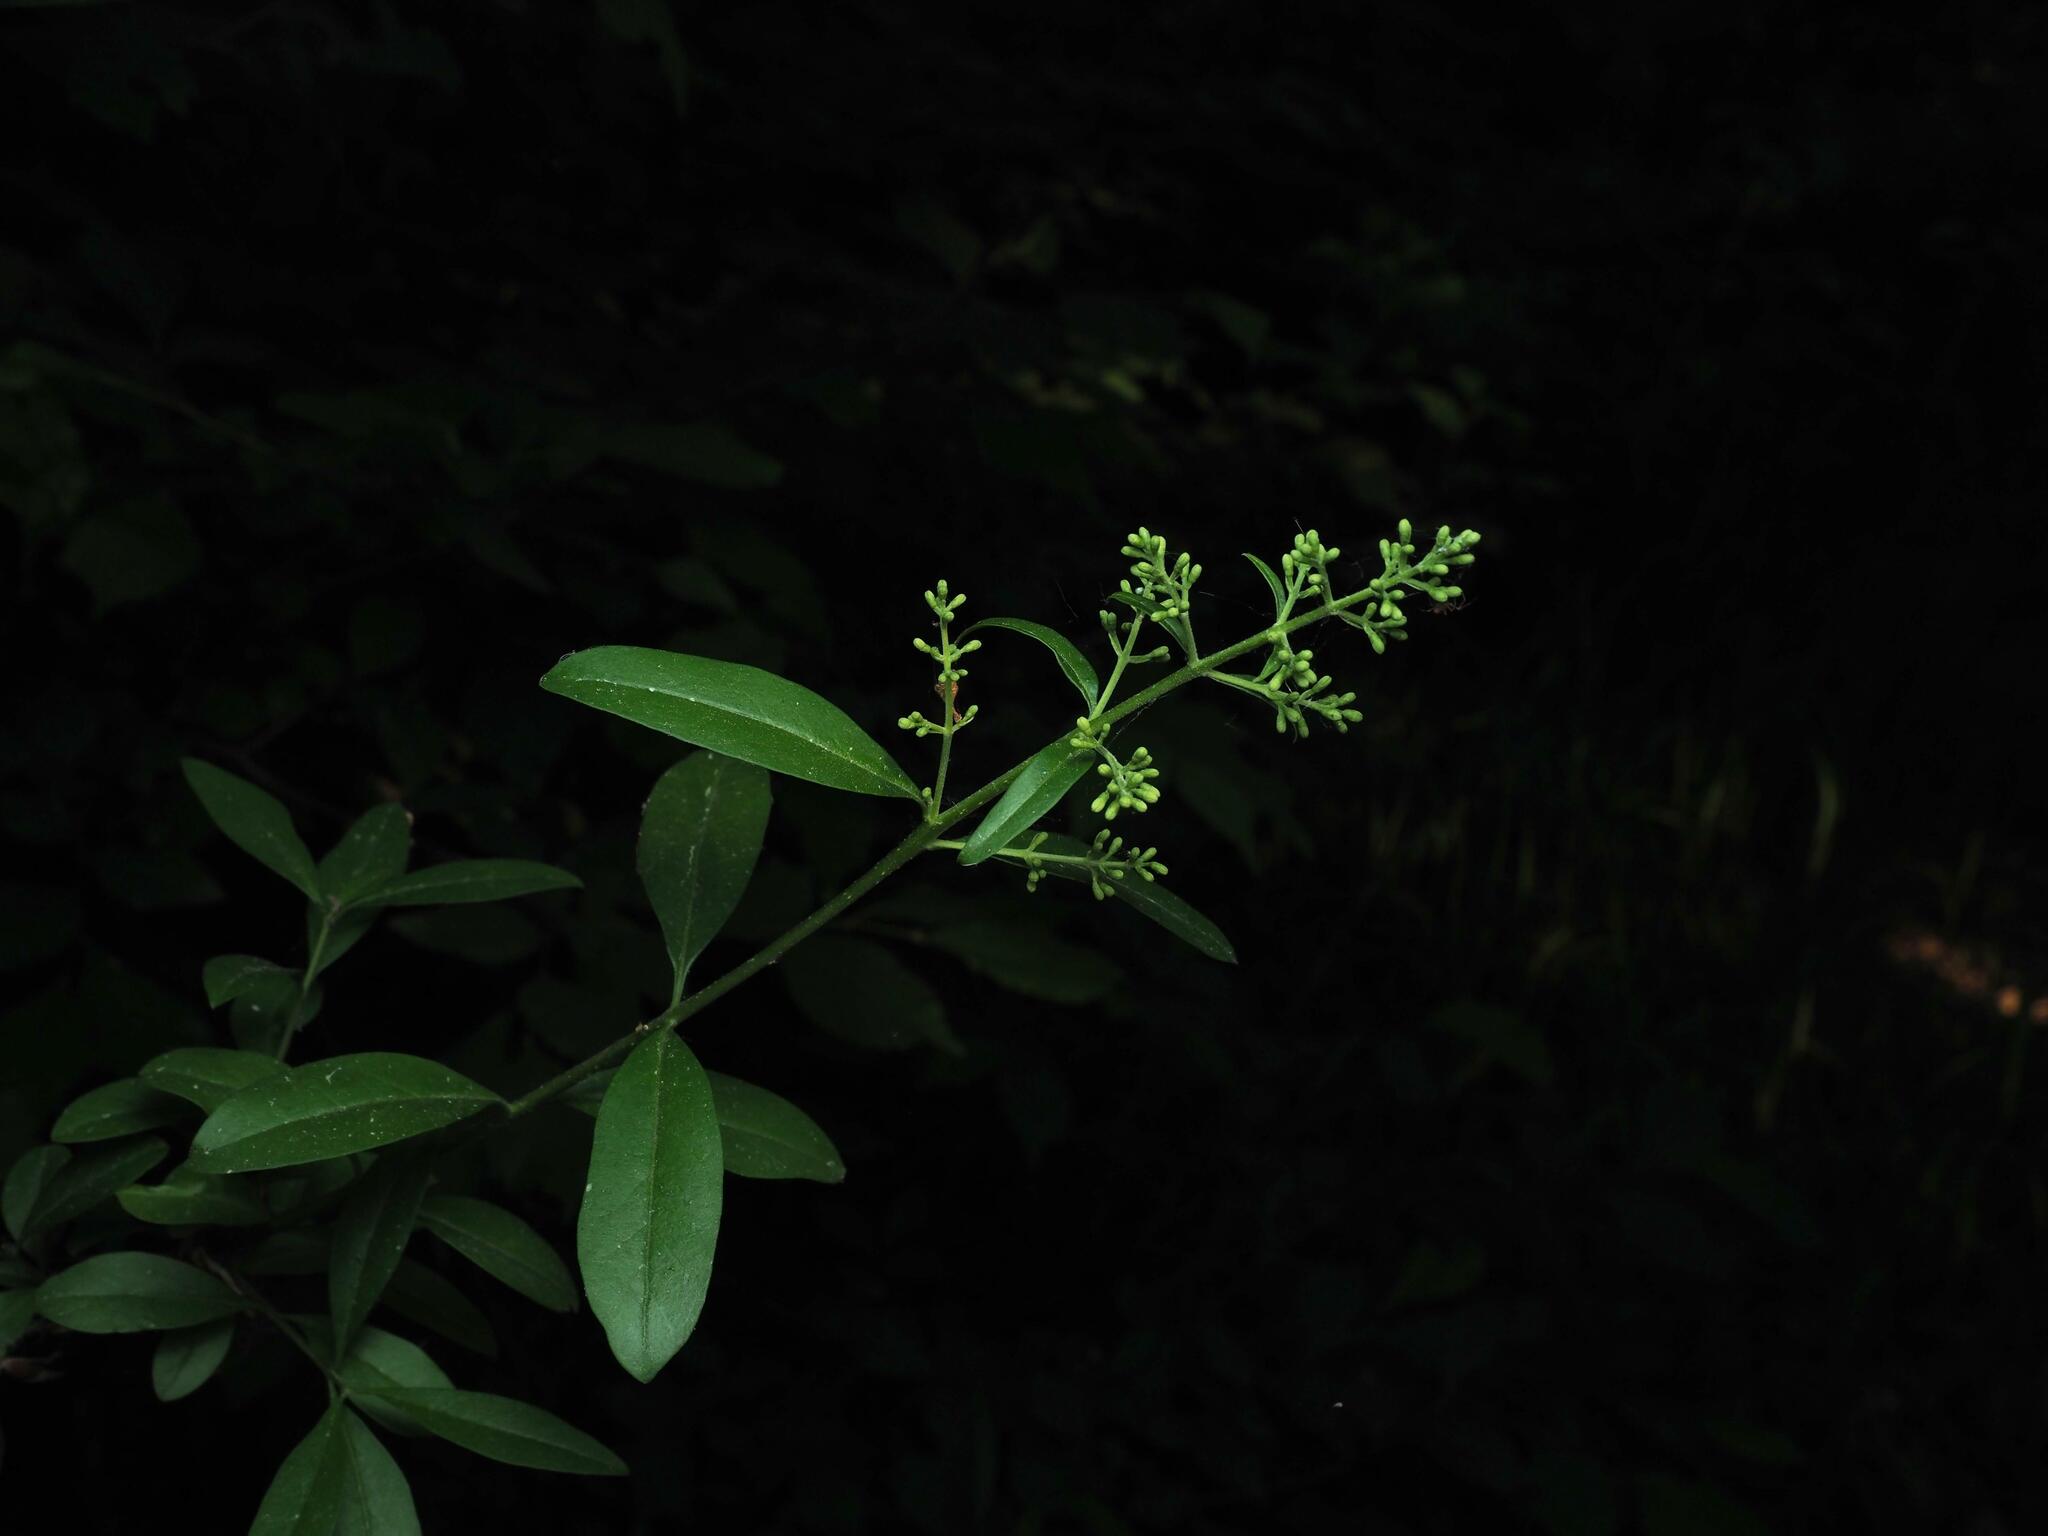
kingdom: Plantae
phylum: Tracheophyta
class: Magnoliopsida
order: Lamiales
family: Oleaceae
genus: Ligustrum
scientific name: Ligustrum vulgare
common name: Wild privet
